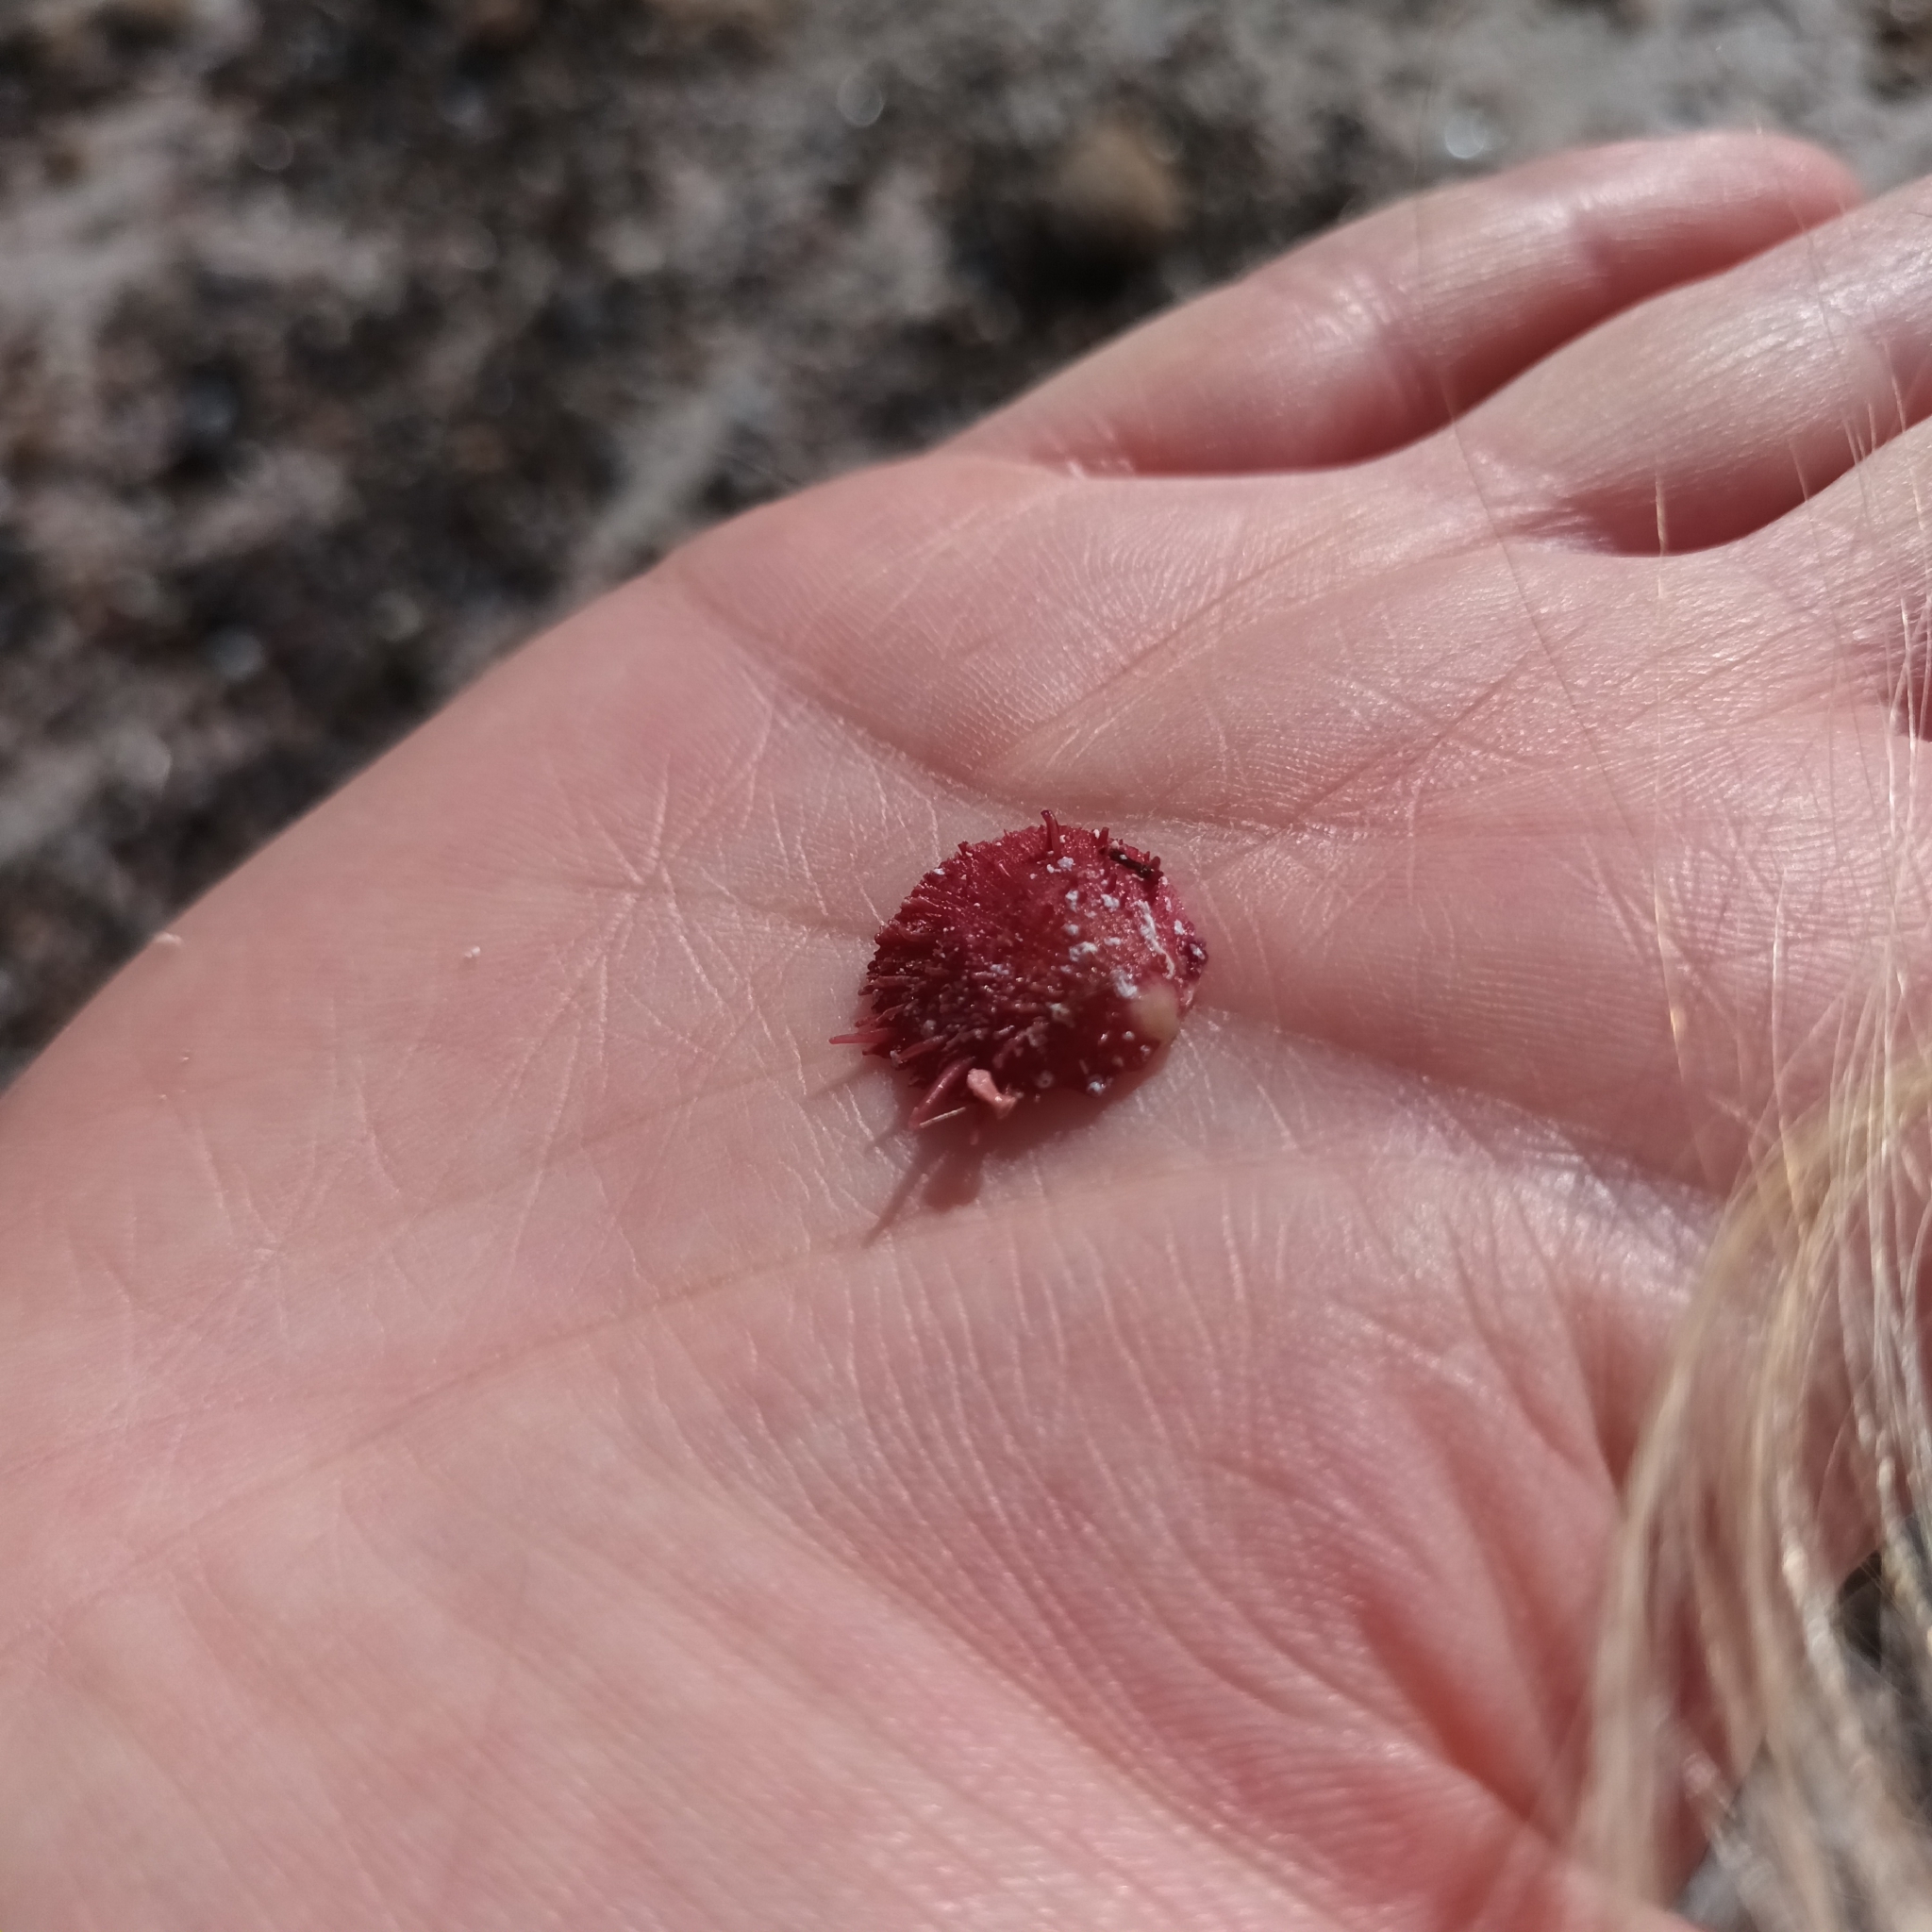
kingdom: Animalia
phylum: Mollusca
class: Bivalvia
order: Pectinida
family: Spondylidae
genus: Spondylus
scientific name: Spondylus gaederopus
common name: European thorny oyster
